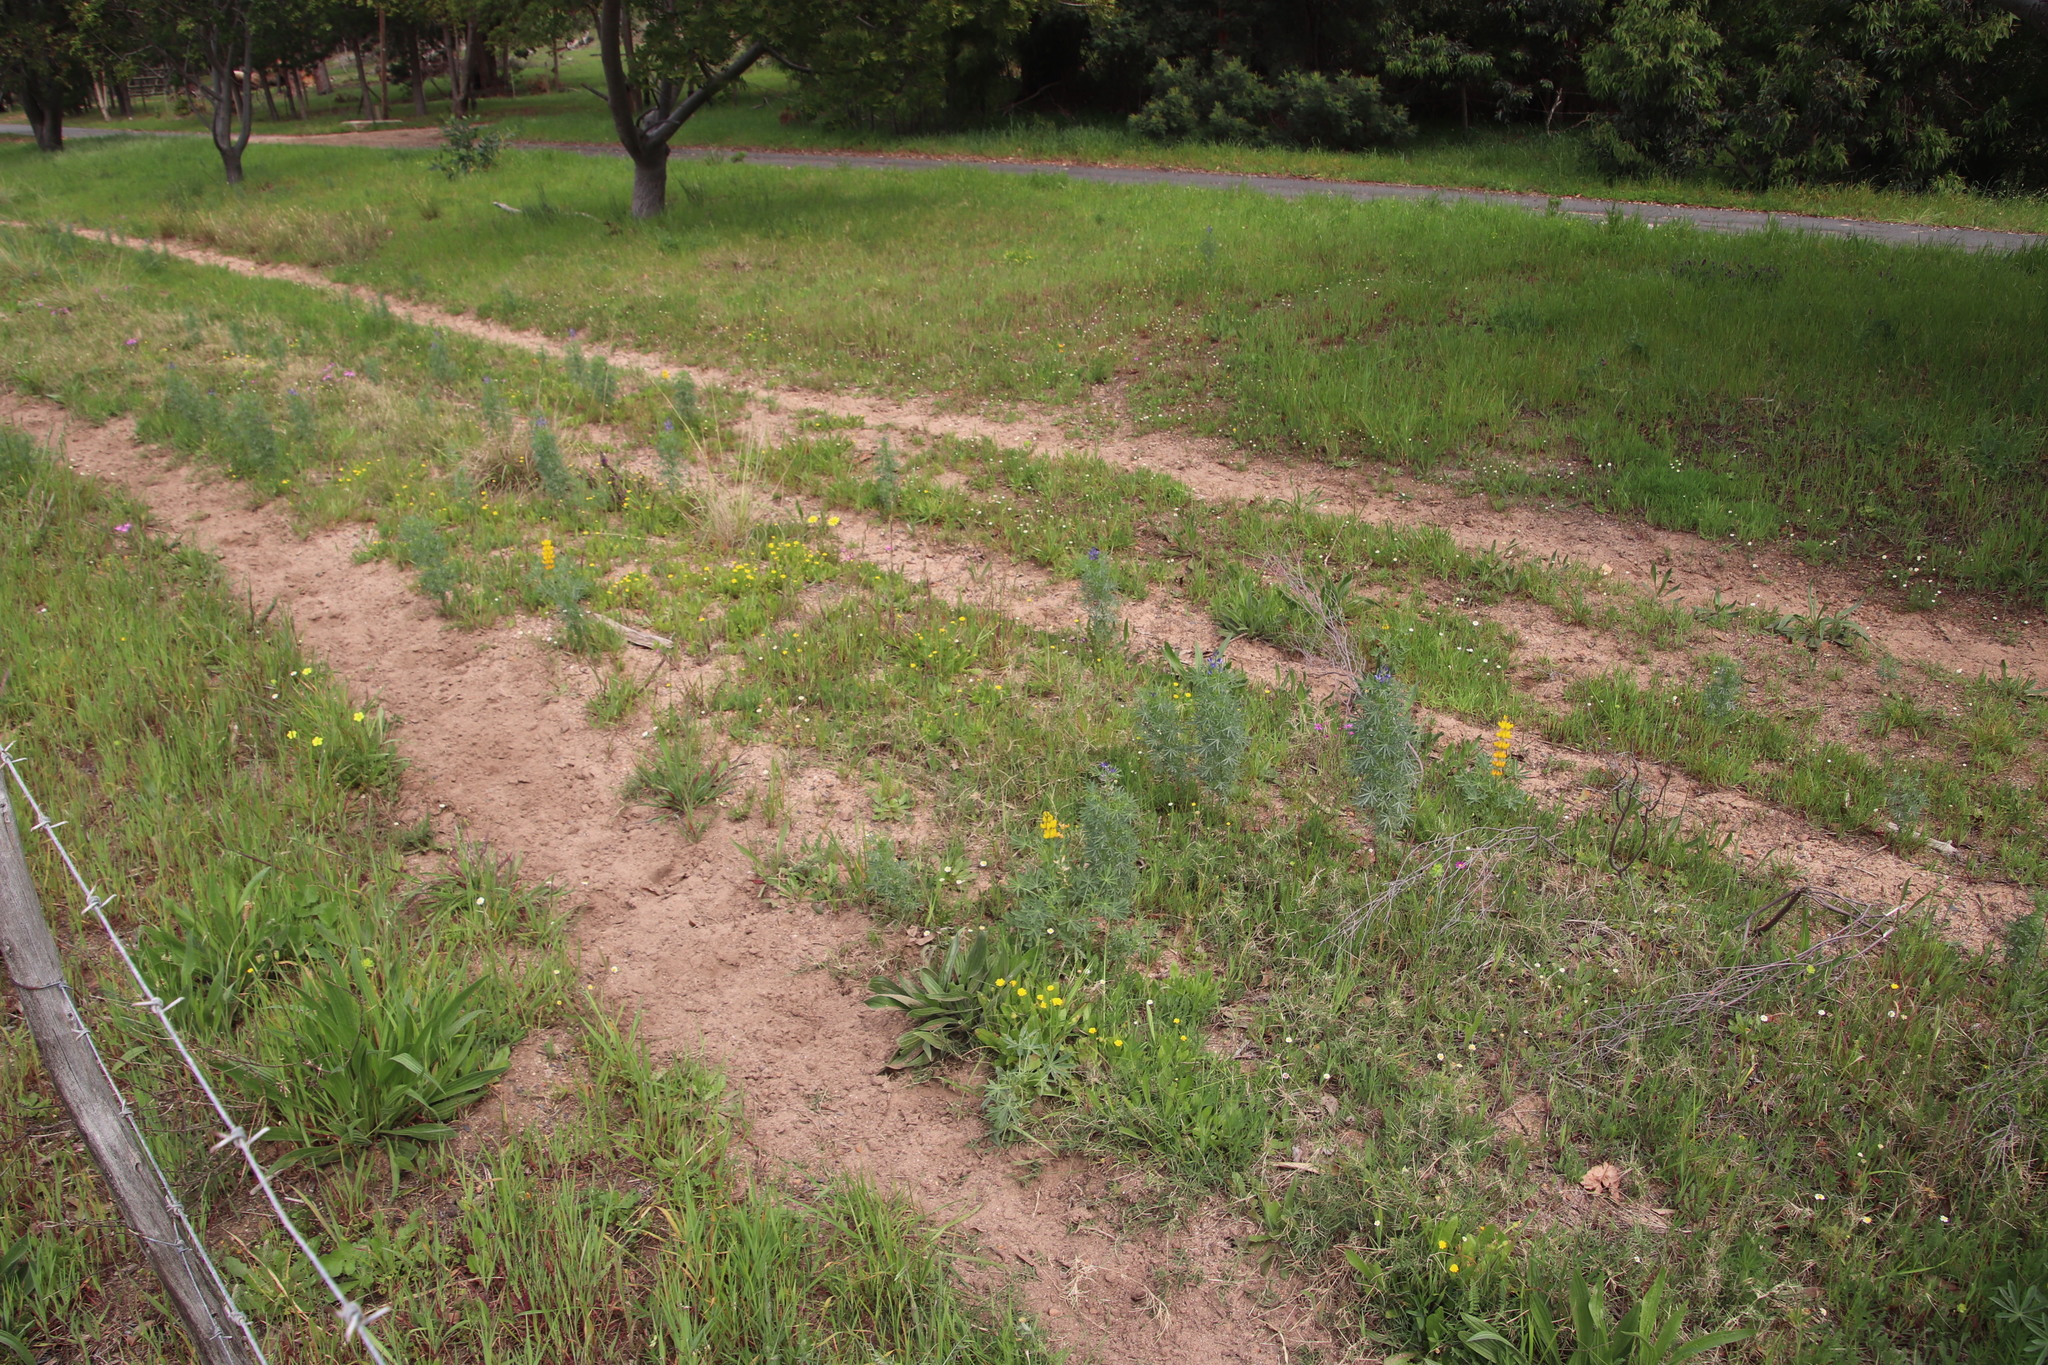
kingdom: Plantae
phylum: Tracheophyta
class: Magnoliopsida
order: Fabales
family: Fabaceae
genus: Lupinus
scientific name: Lupinus angustifolius
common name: Narrow-leaved lupin
